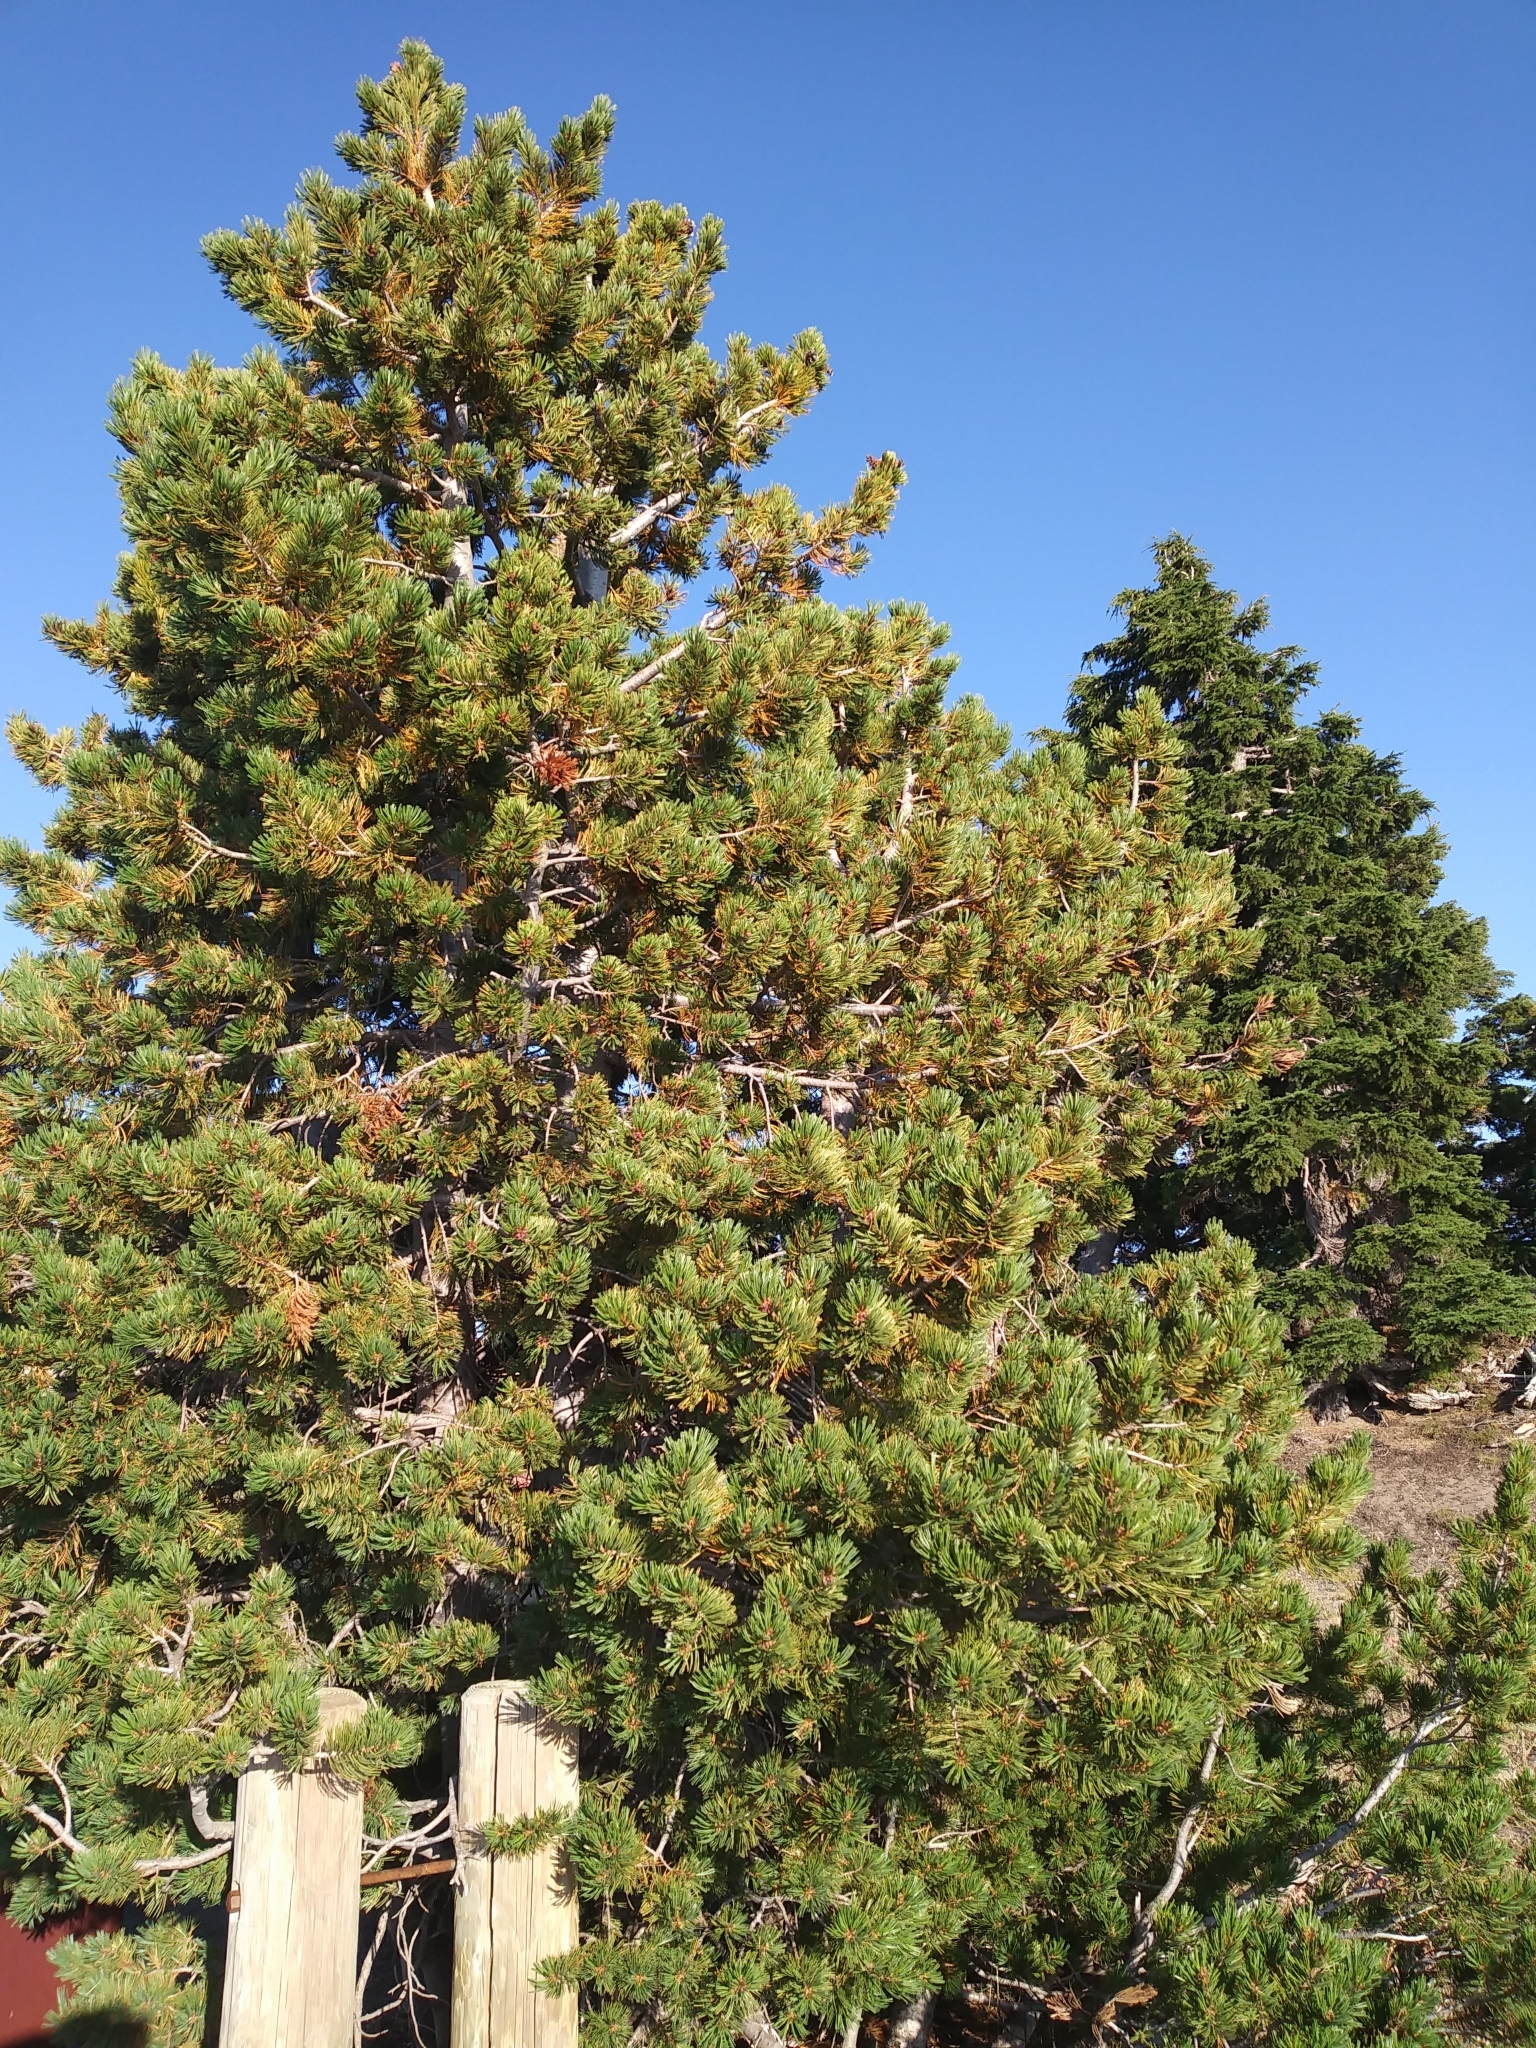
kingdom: Plantae
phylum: Tracheophyta
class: Pinopsida
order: Pinales
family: Pinaceae
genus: Pinus
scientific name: Pinus albicaulis
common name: Whitebark pine
